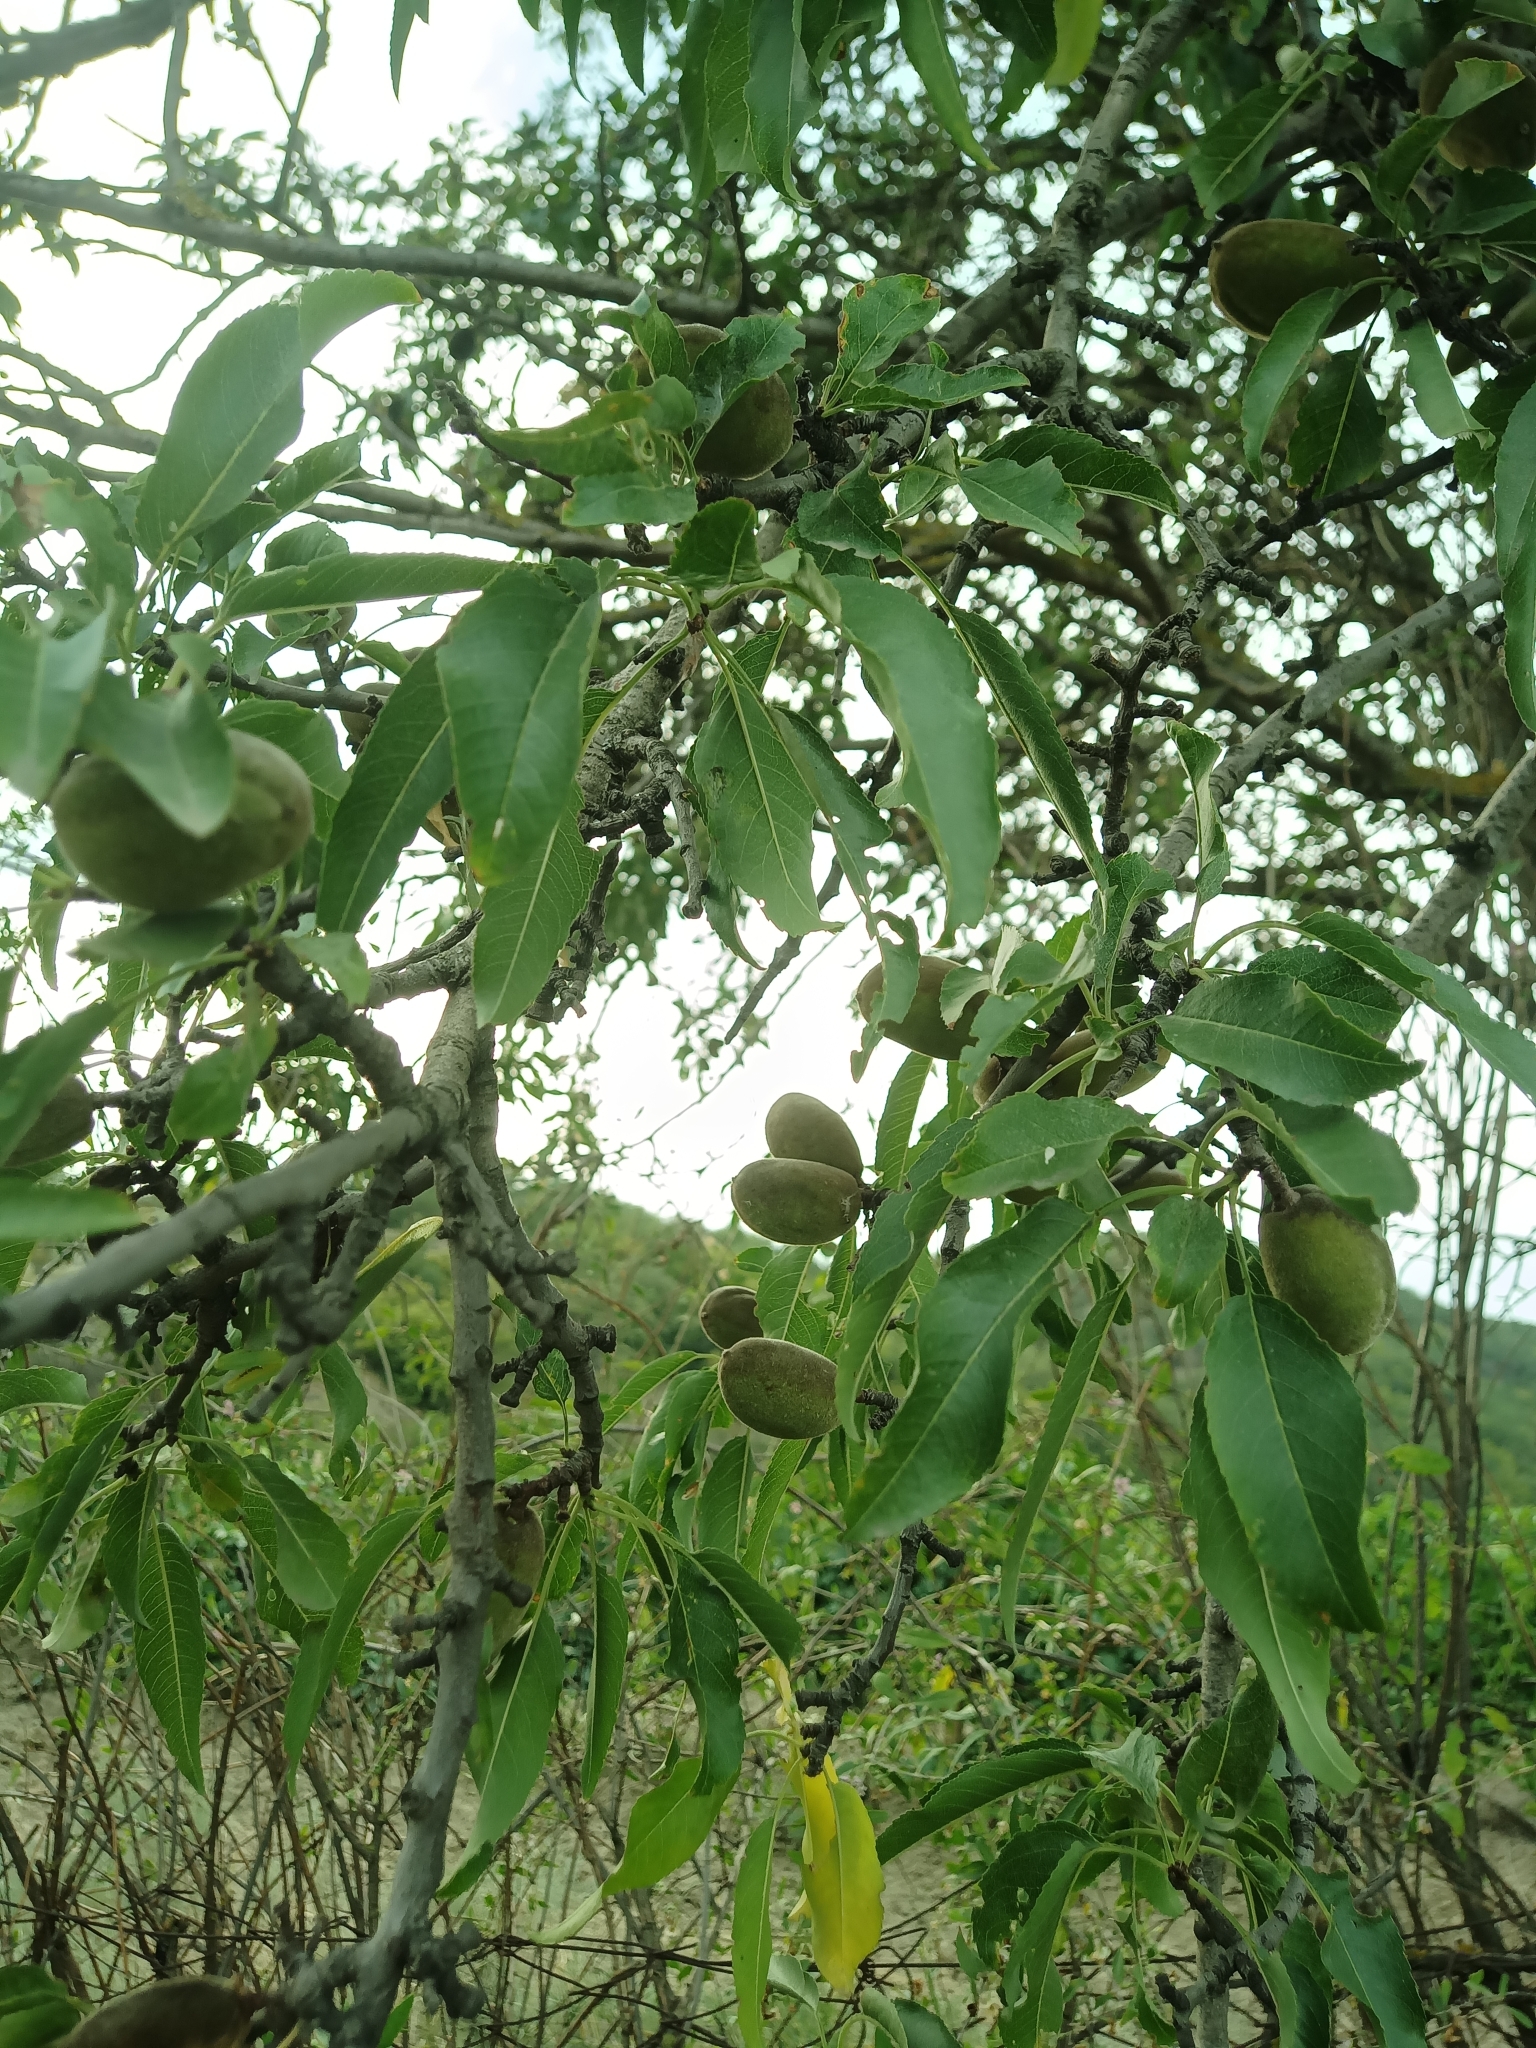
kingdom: Plantae
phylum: Tracheophyta
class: Magnoliopsida
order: Rosales
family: Rosaceae
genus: Prunus
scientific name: Prunus amygdalus
